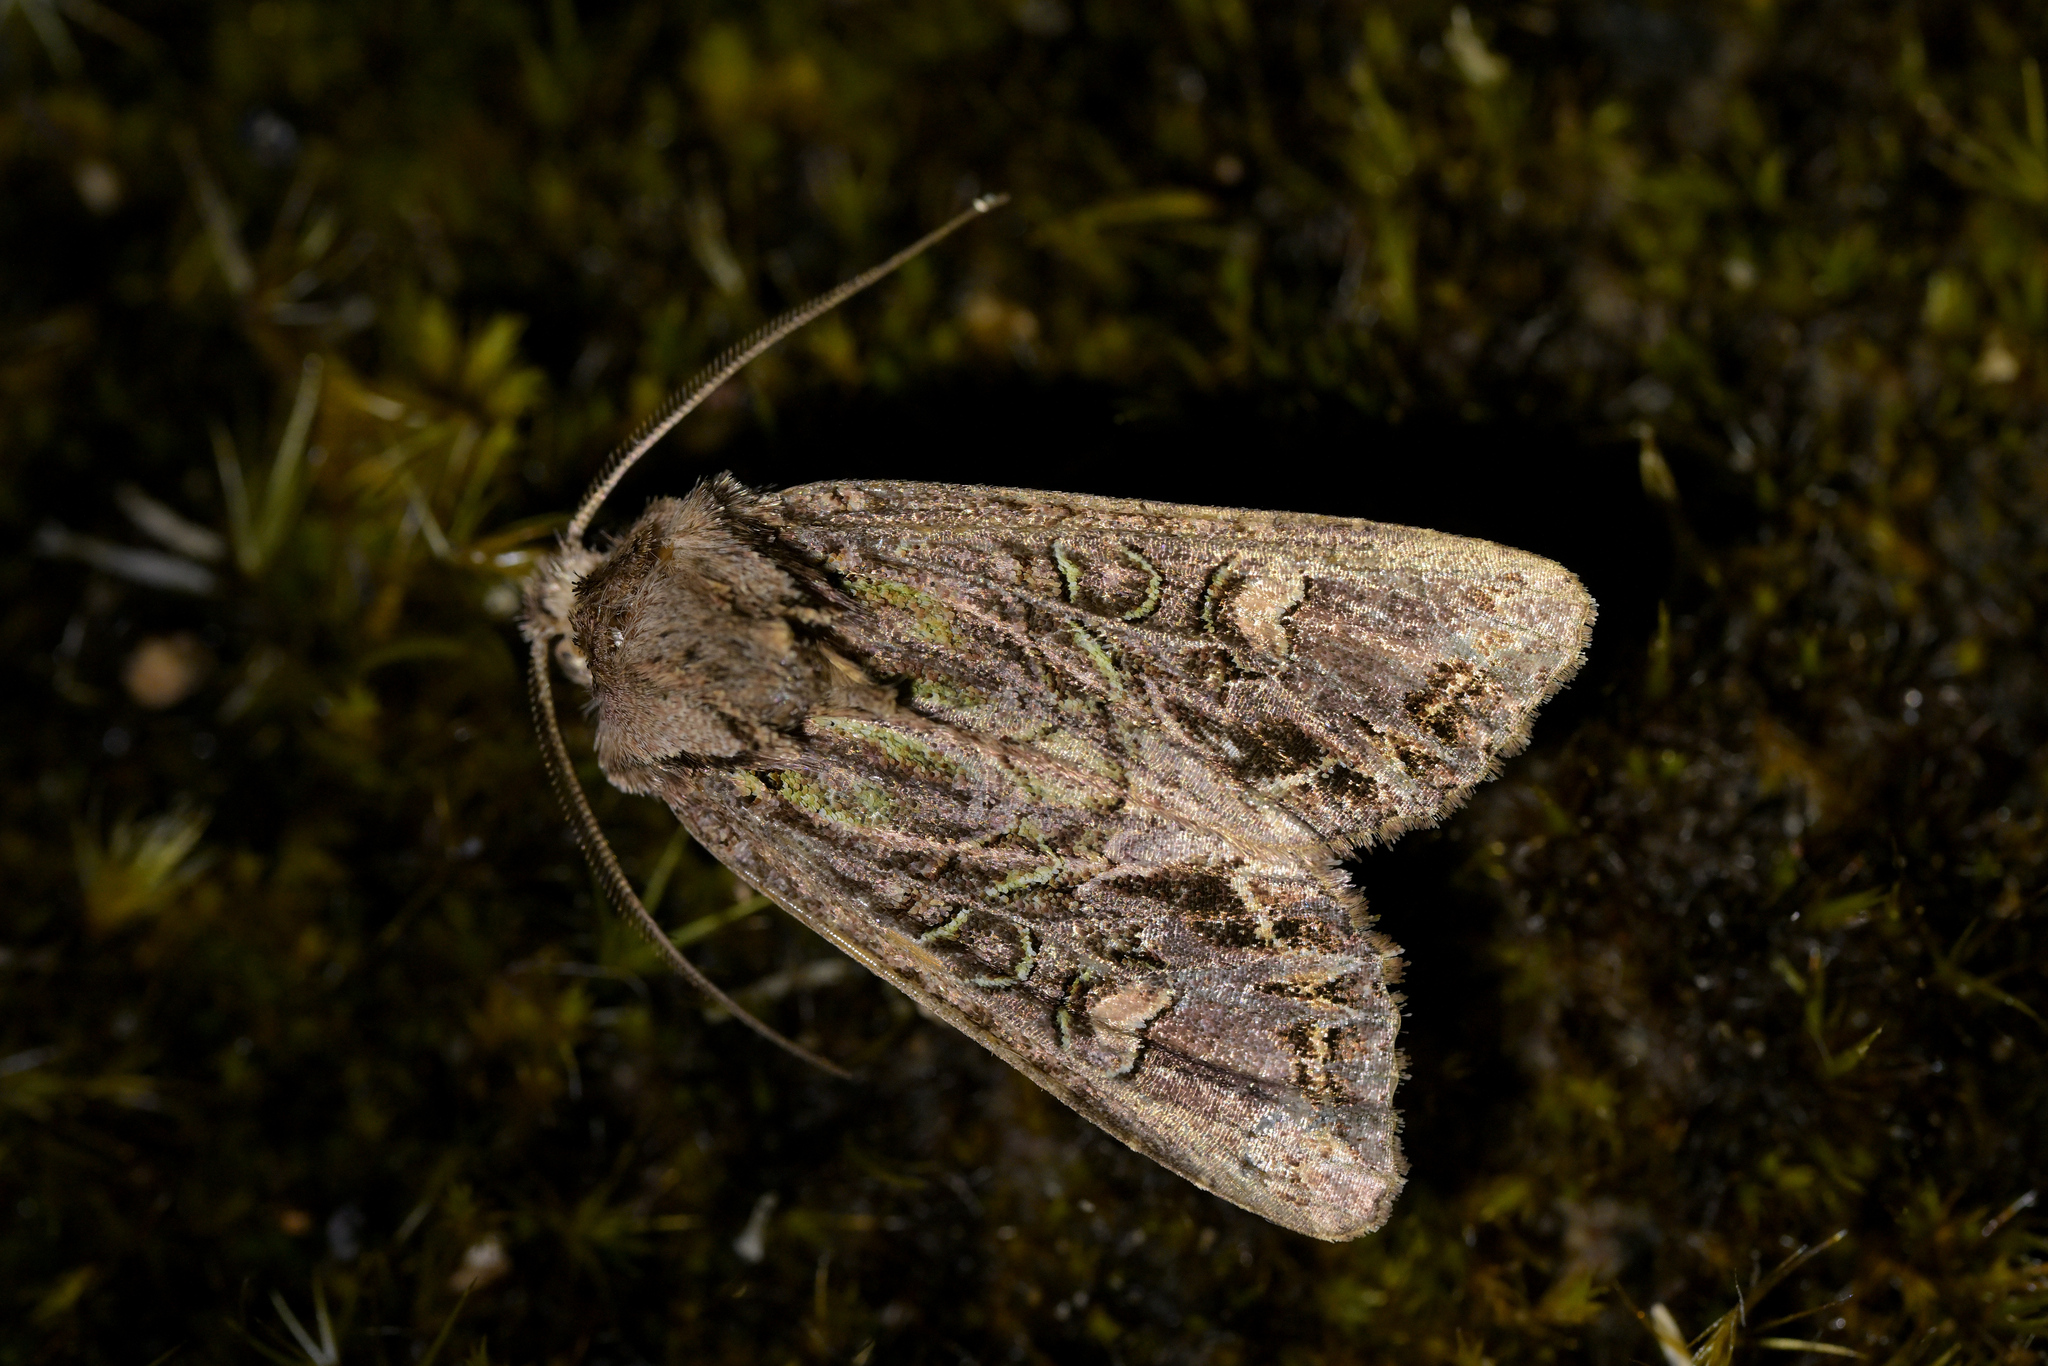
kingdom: Animalia
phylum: Arthropoda
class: Insecta
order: Lepidoptera
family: Noctuidae
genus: Ichneutica
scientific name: Ichneutica insignis
